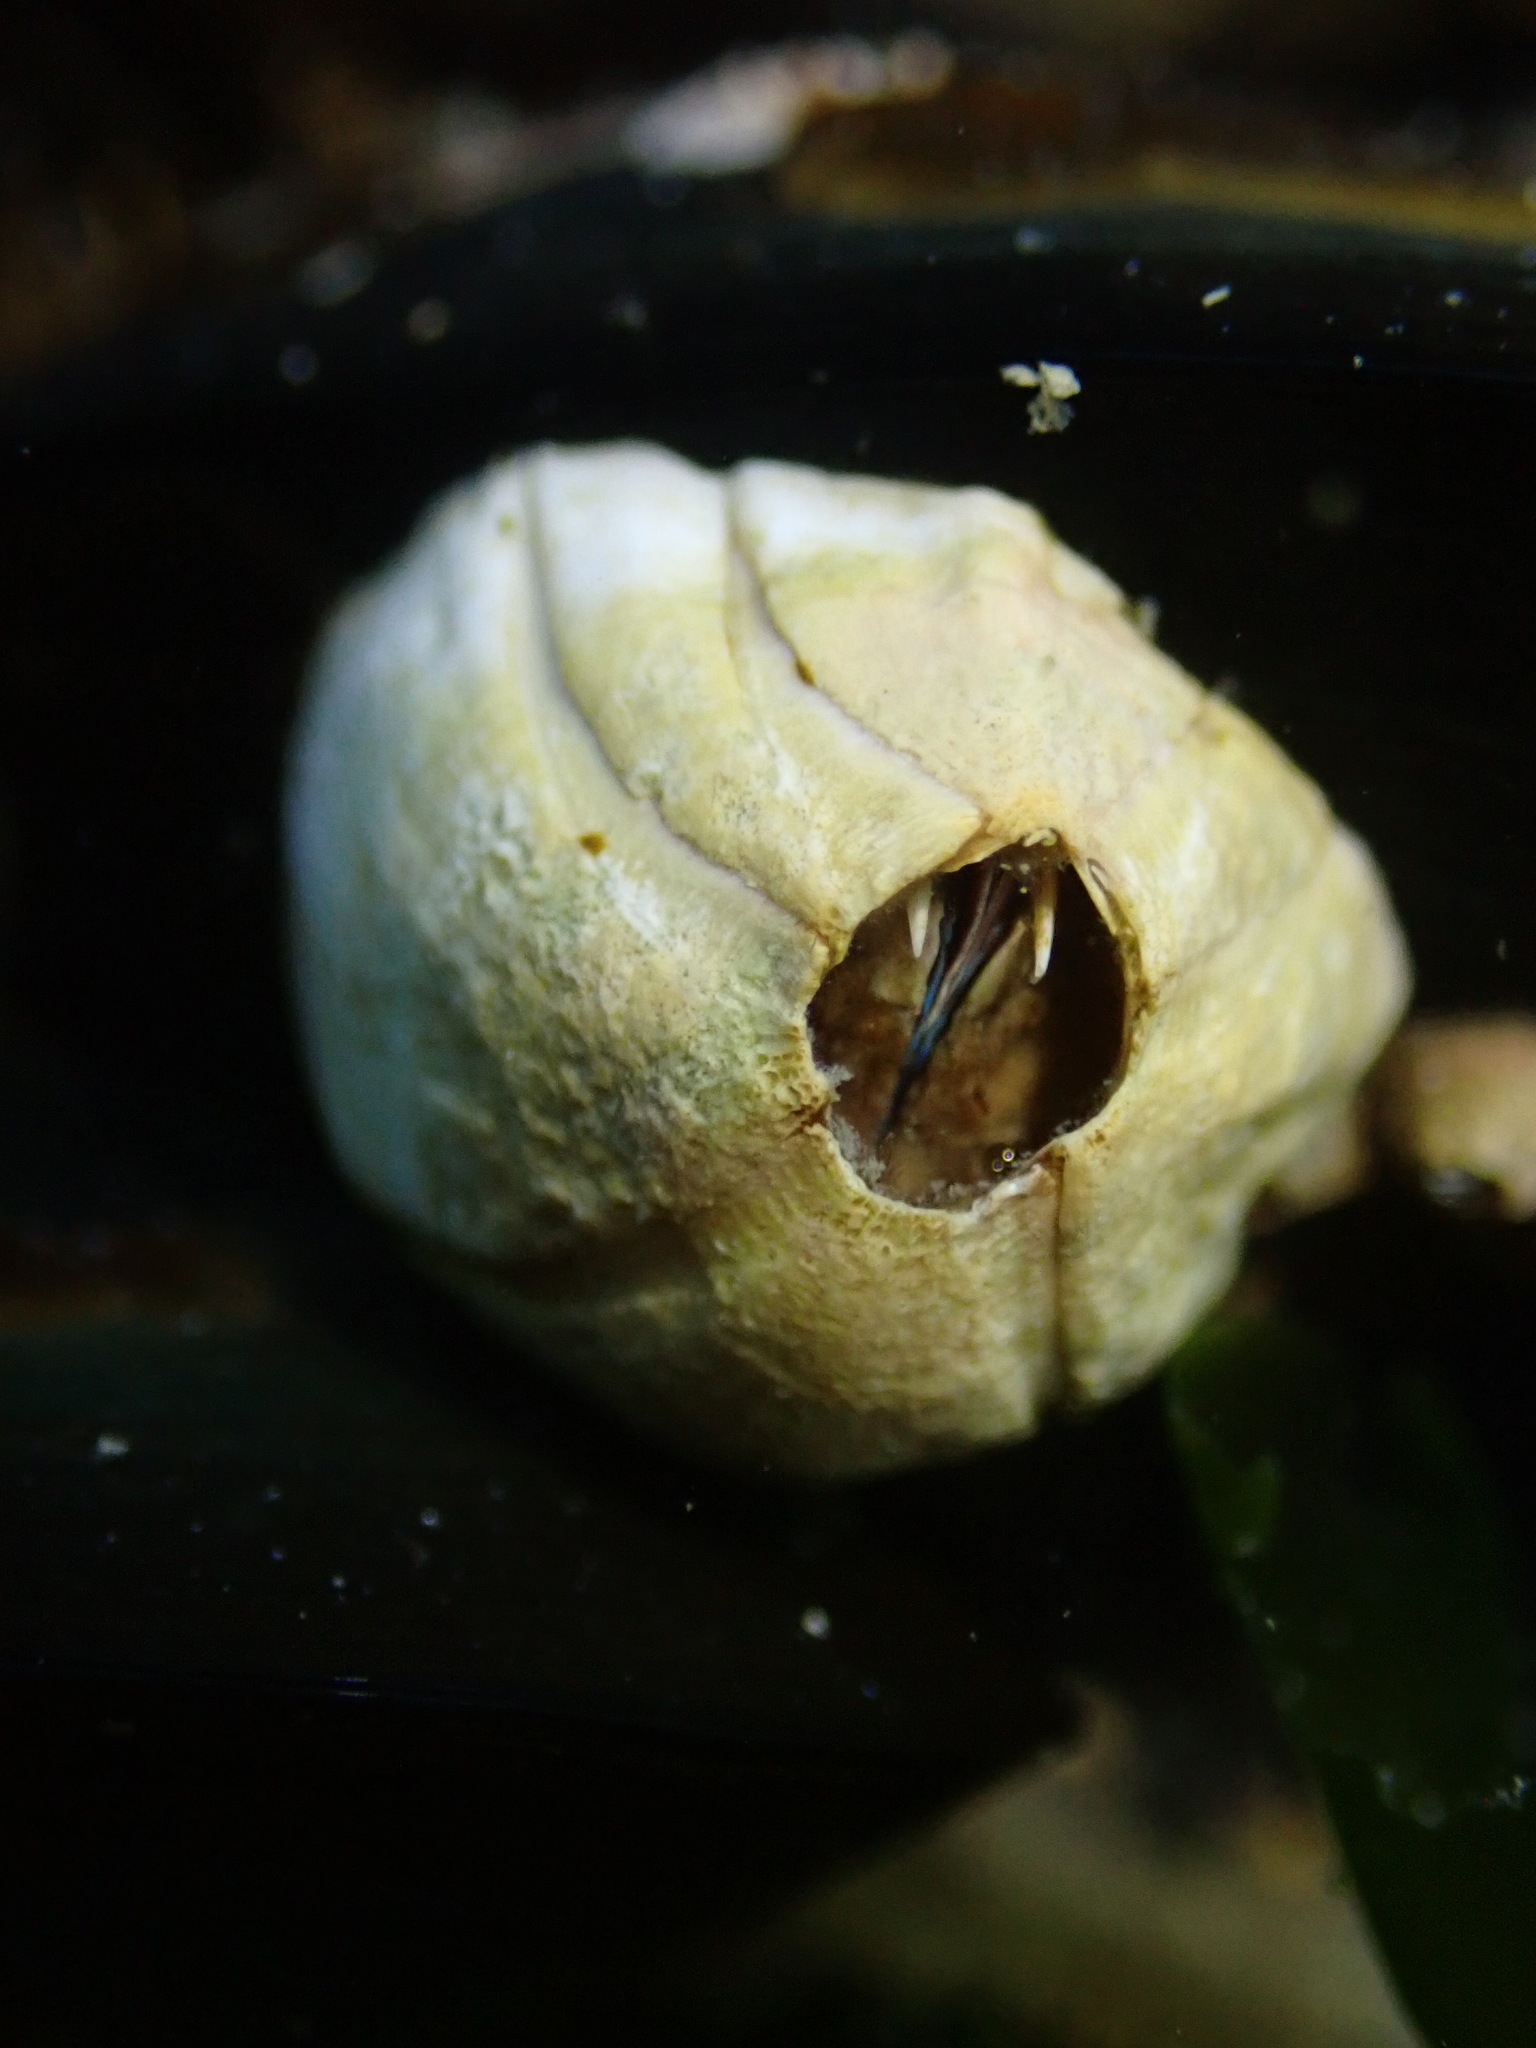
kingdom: Animalia
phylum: Arthropoda
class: Maxillopoda
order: Sessilia
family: Balanidae
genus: Austromegabalanus
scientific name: Austromegabalanus nigrescens
